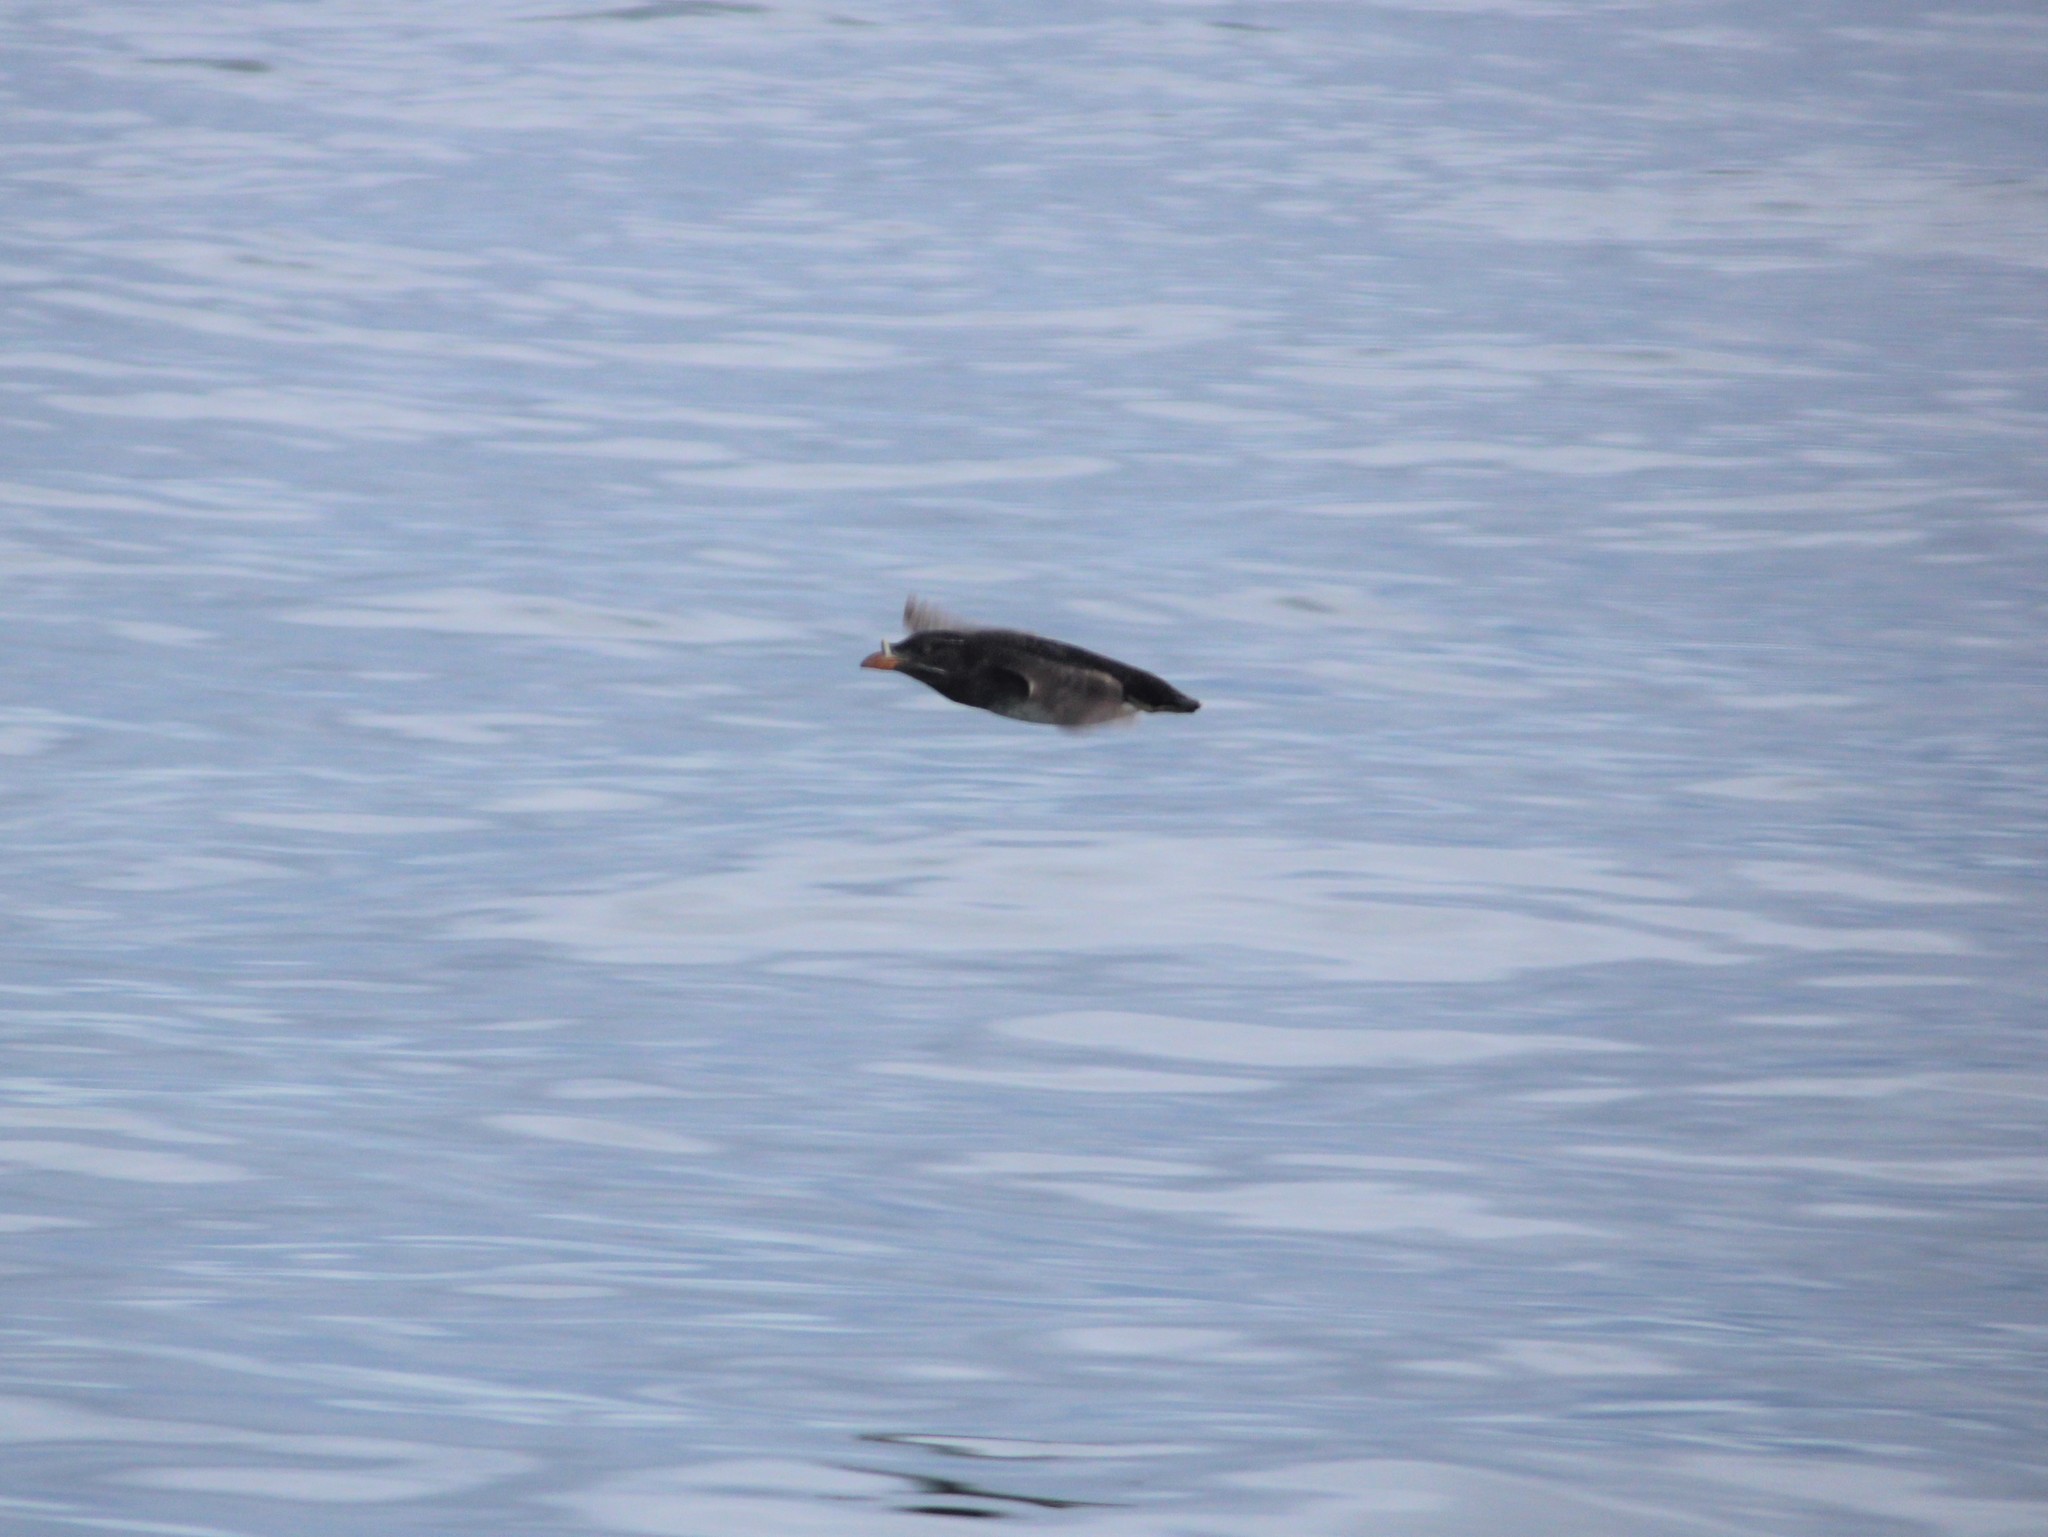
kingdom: Animalia
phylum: Chordata
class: Aves
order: Charadriiformes
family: Alcidae
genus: Cerorhinca
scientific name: Cerorhinca monocerata
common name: Rhinoceros auklet
